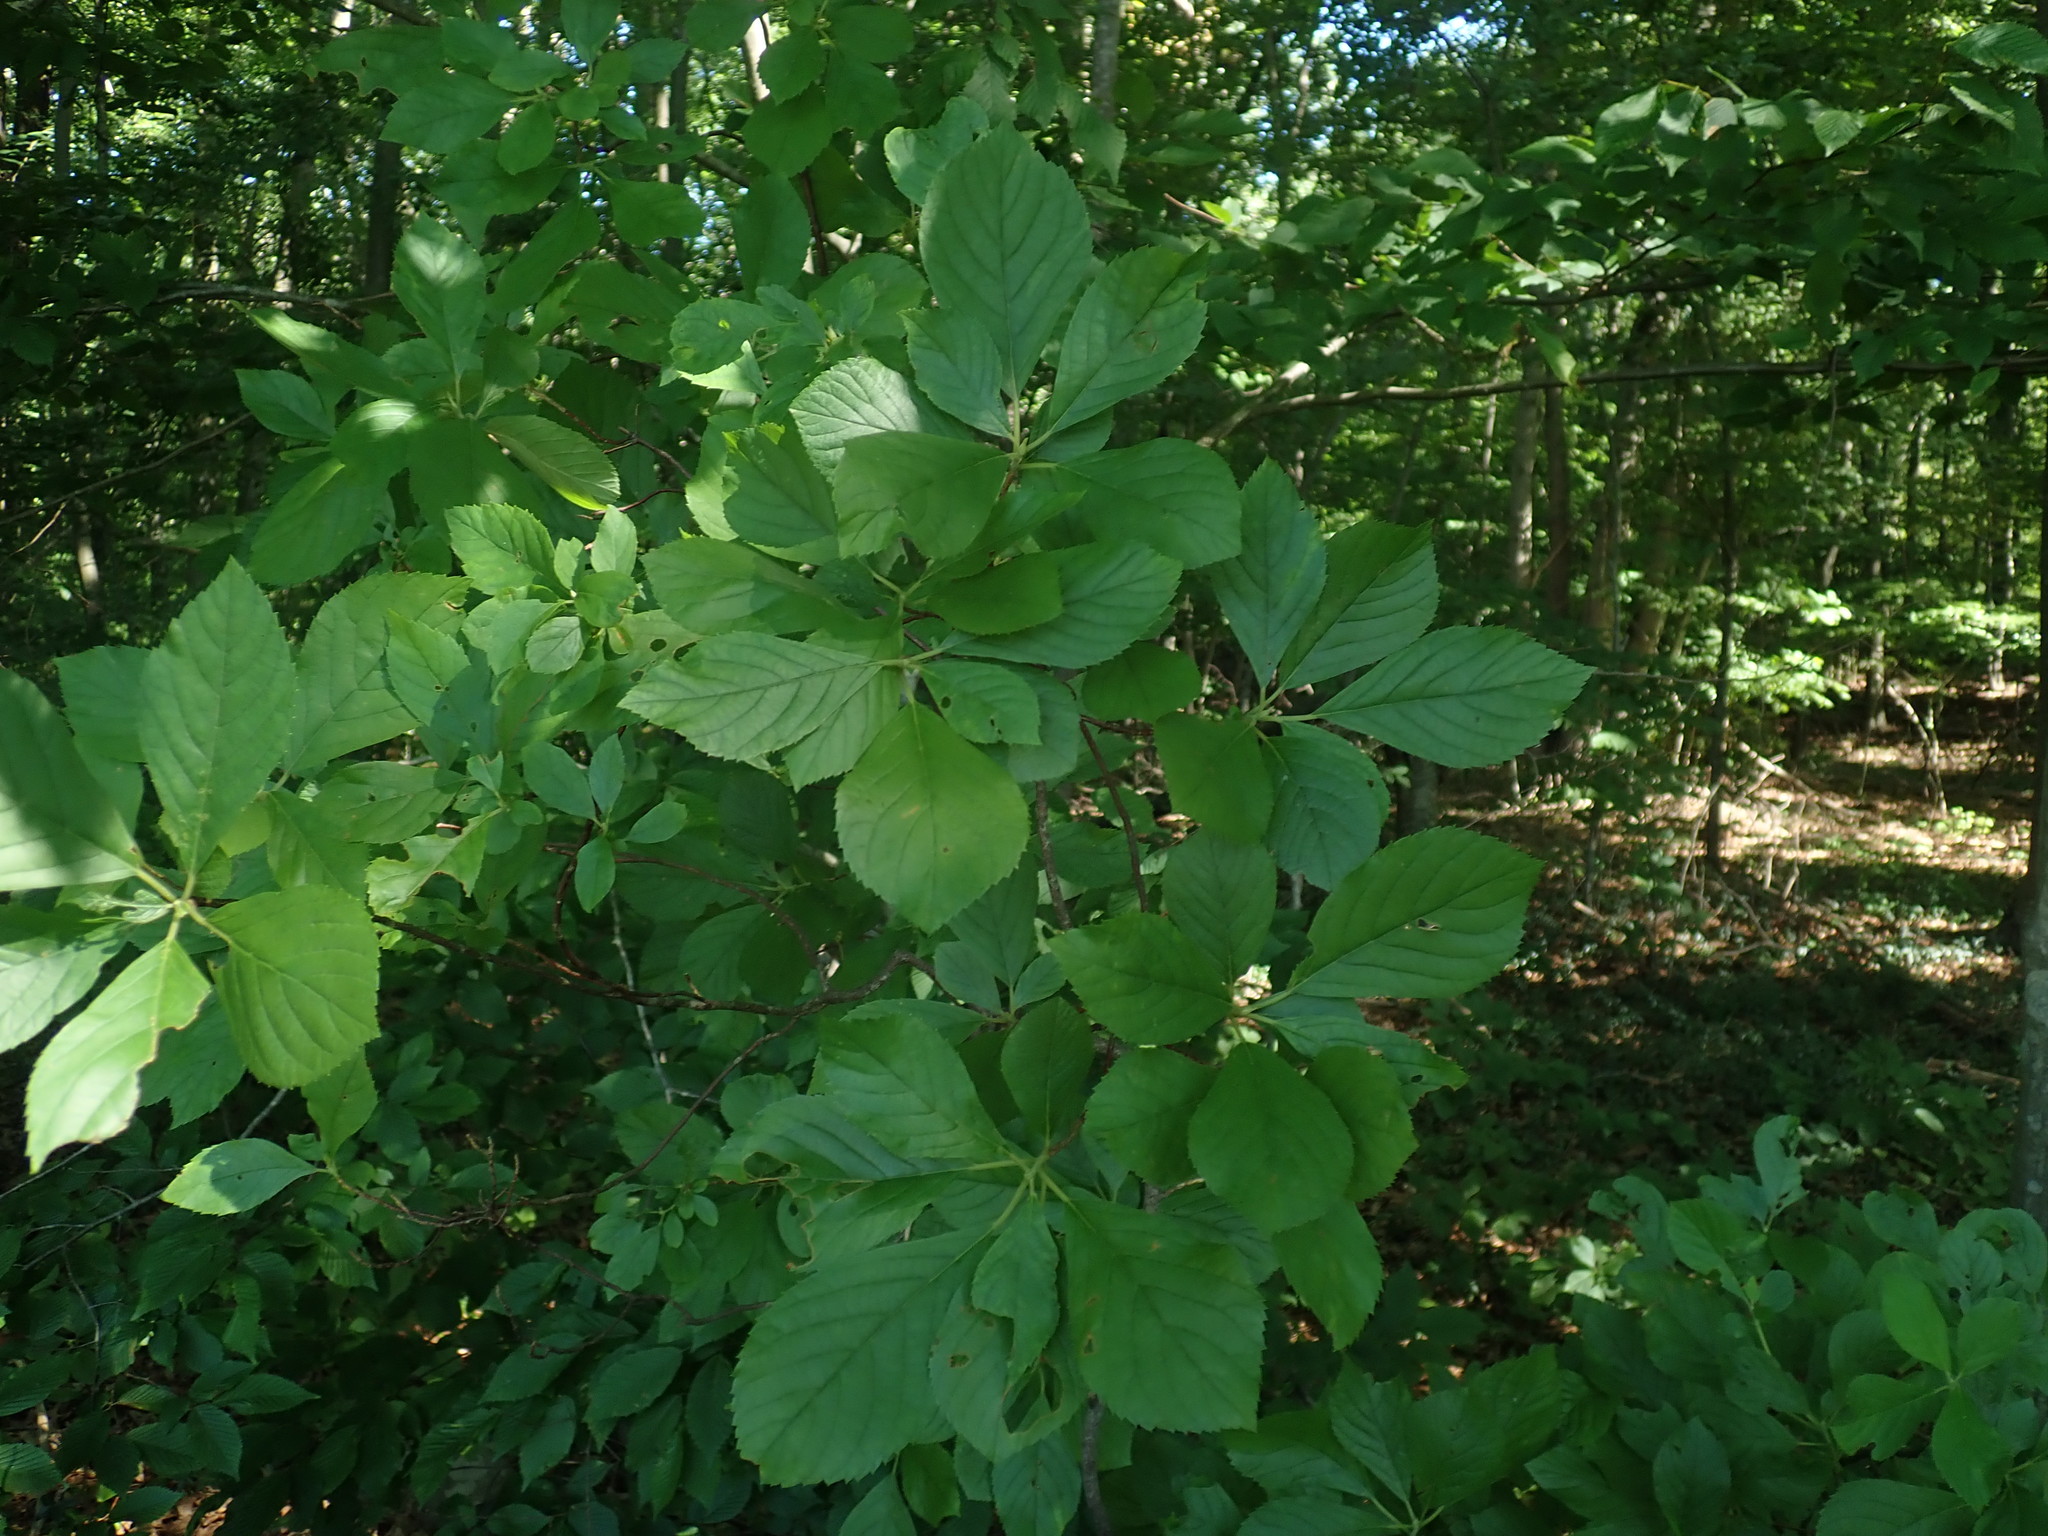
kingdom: Plantae
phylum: Tracheophyta
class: Magnoliopsida
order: Ericales
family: Clethraceae
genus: Clethra
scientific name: Clethra alnifolia
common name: Sweet pepperbush
